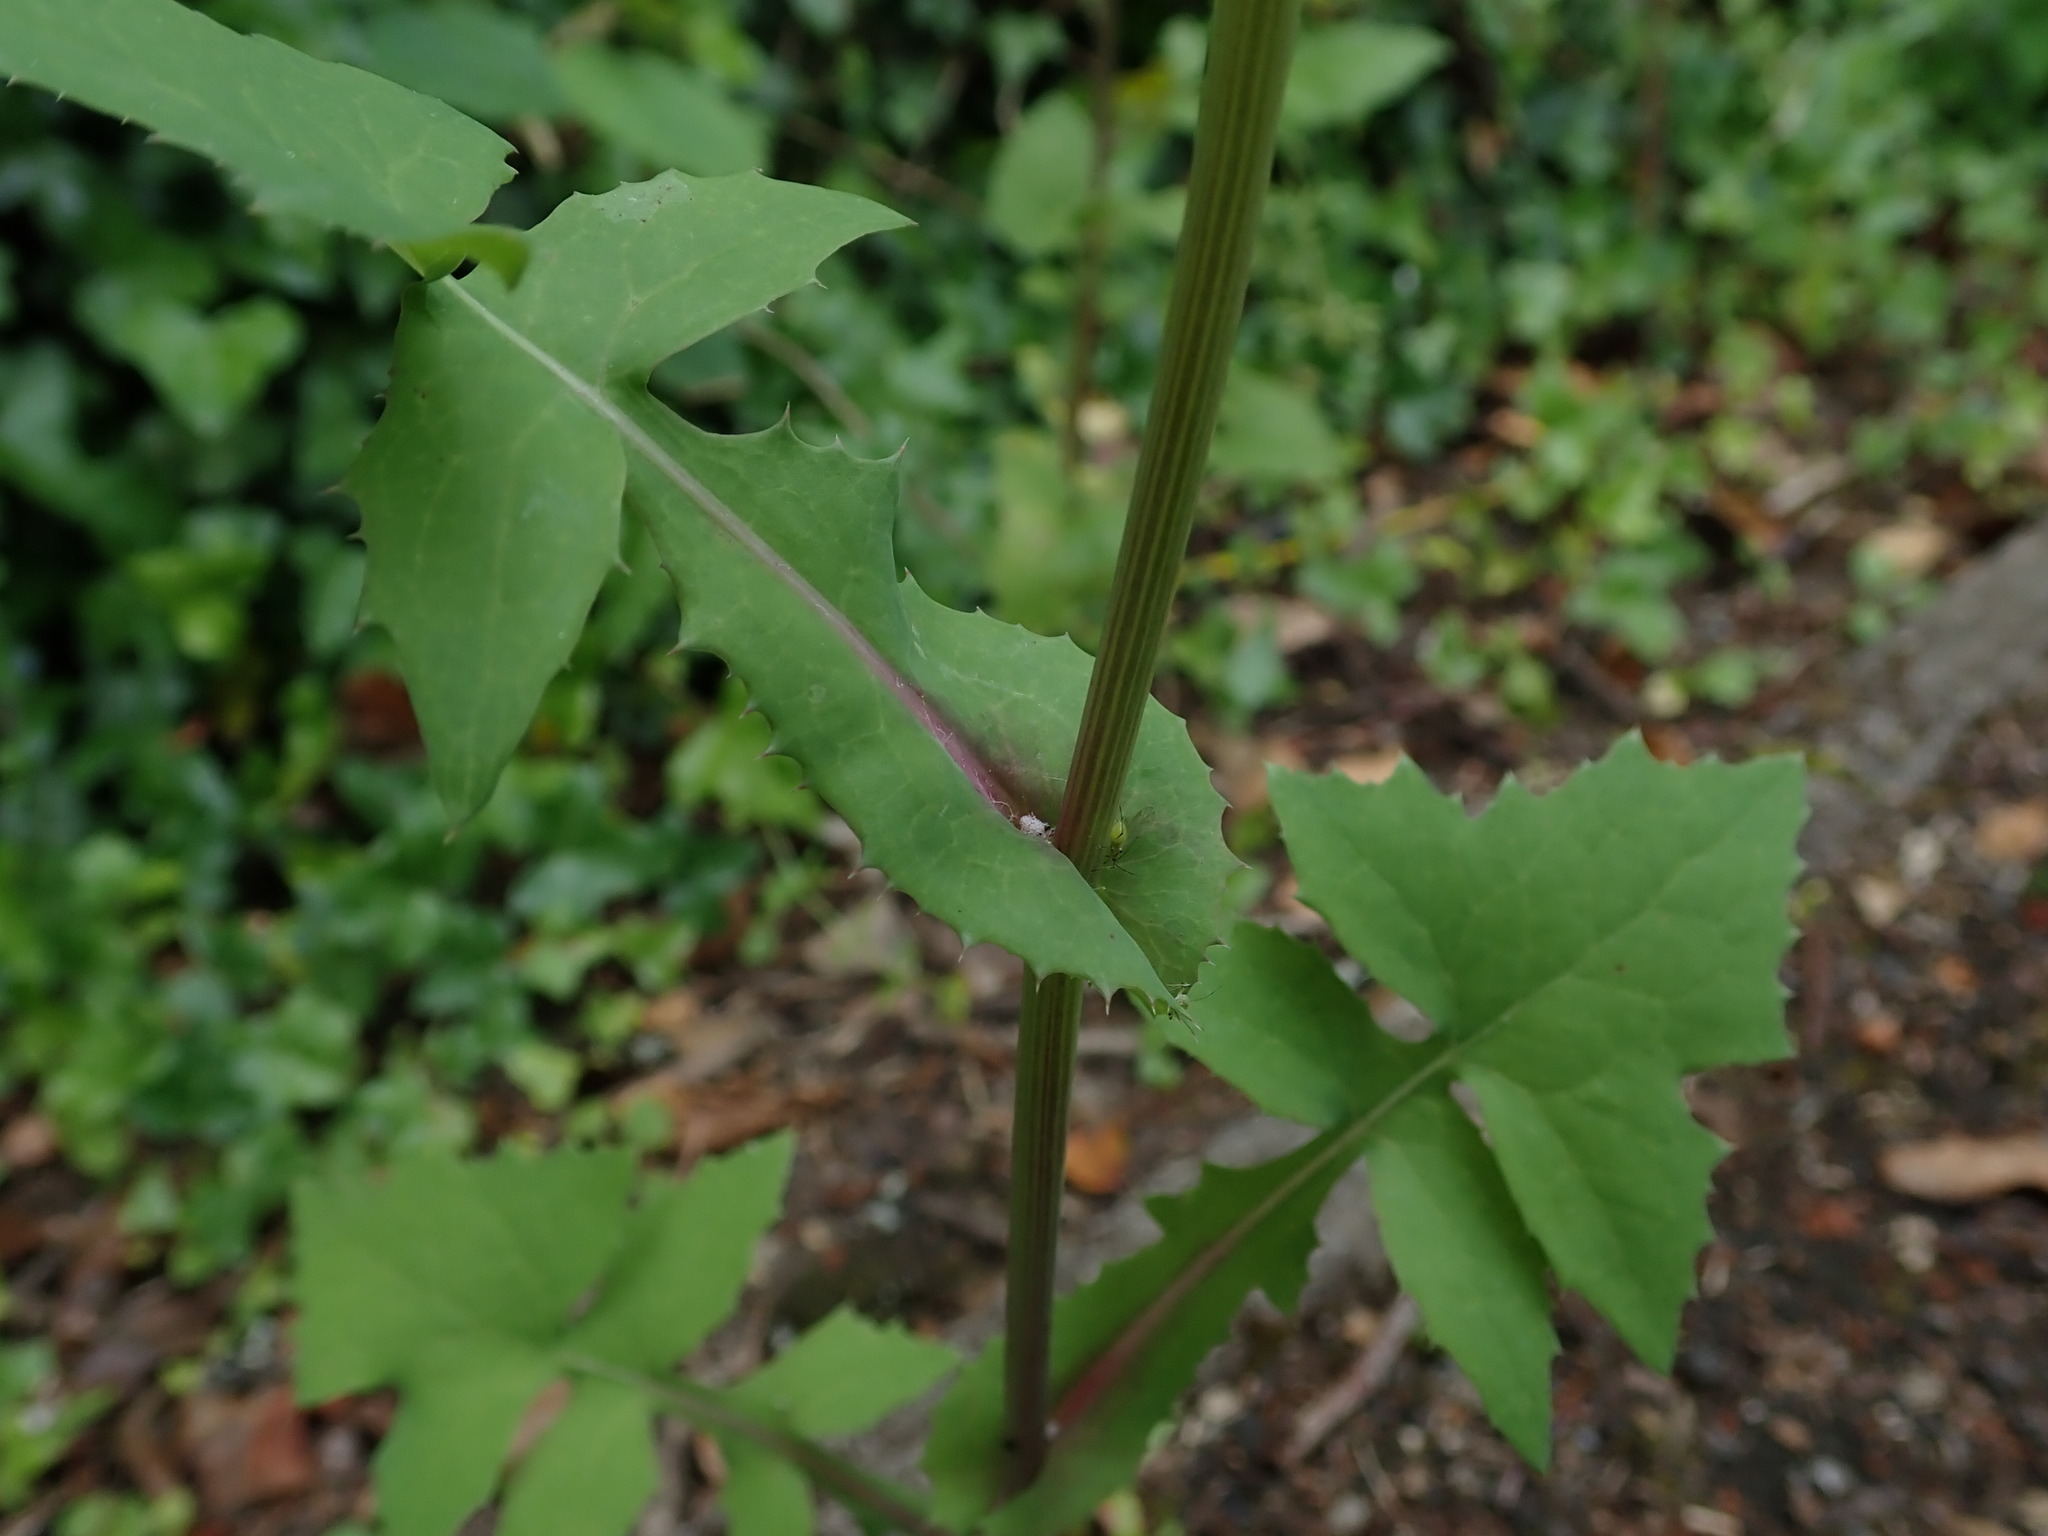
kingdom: Plantae
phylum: Tracheophyta
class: Magnoliopsida
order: Asterales
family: Asteraceae
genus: Sonchus
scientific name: Sonchus oleraceus
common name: Common sowthistle
